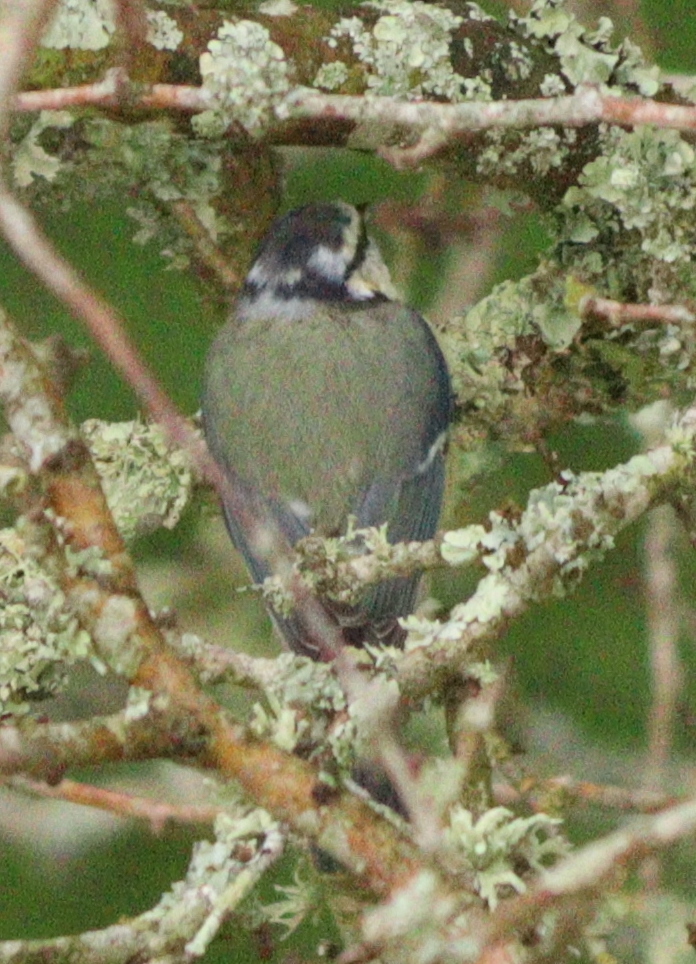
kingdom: Animalia
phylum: Chordata
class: Aves
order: Passeriformes
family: Paridae
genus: Cyanistes
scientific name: Cyanistes caeruleus
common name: Eurasian blue tit
